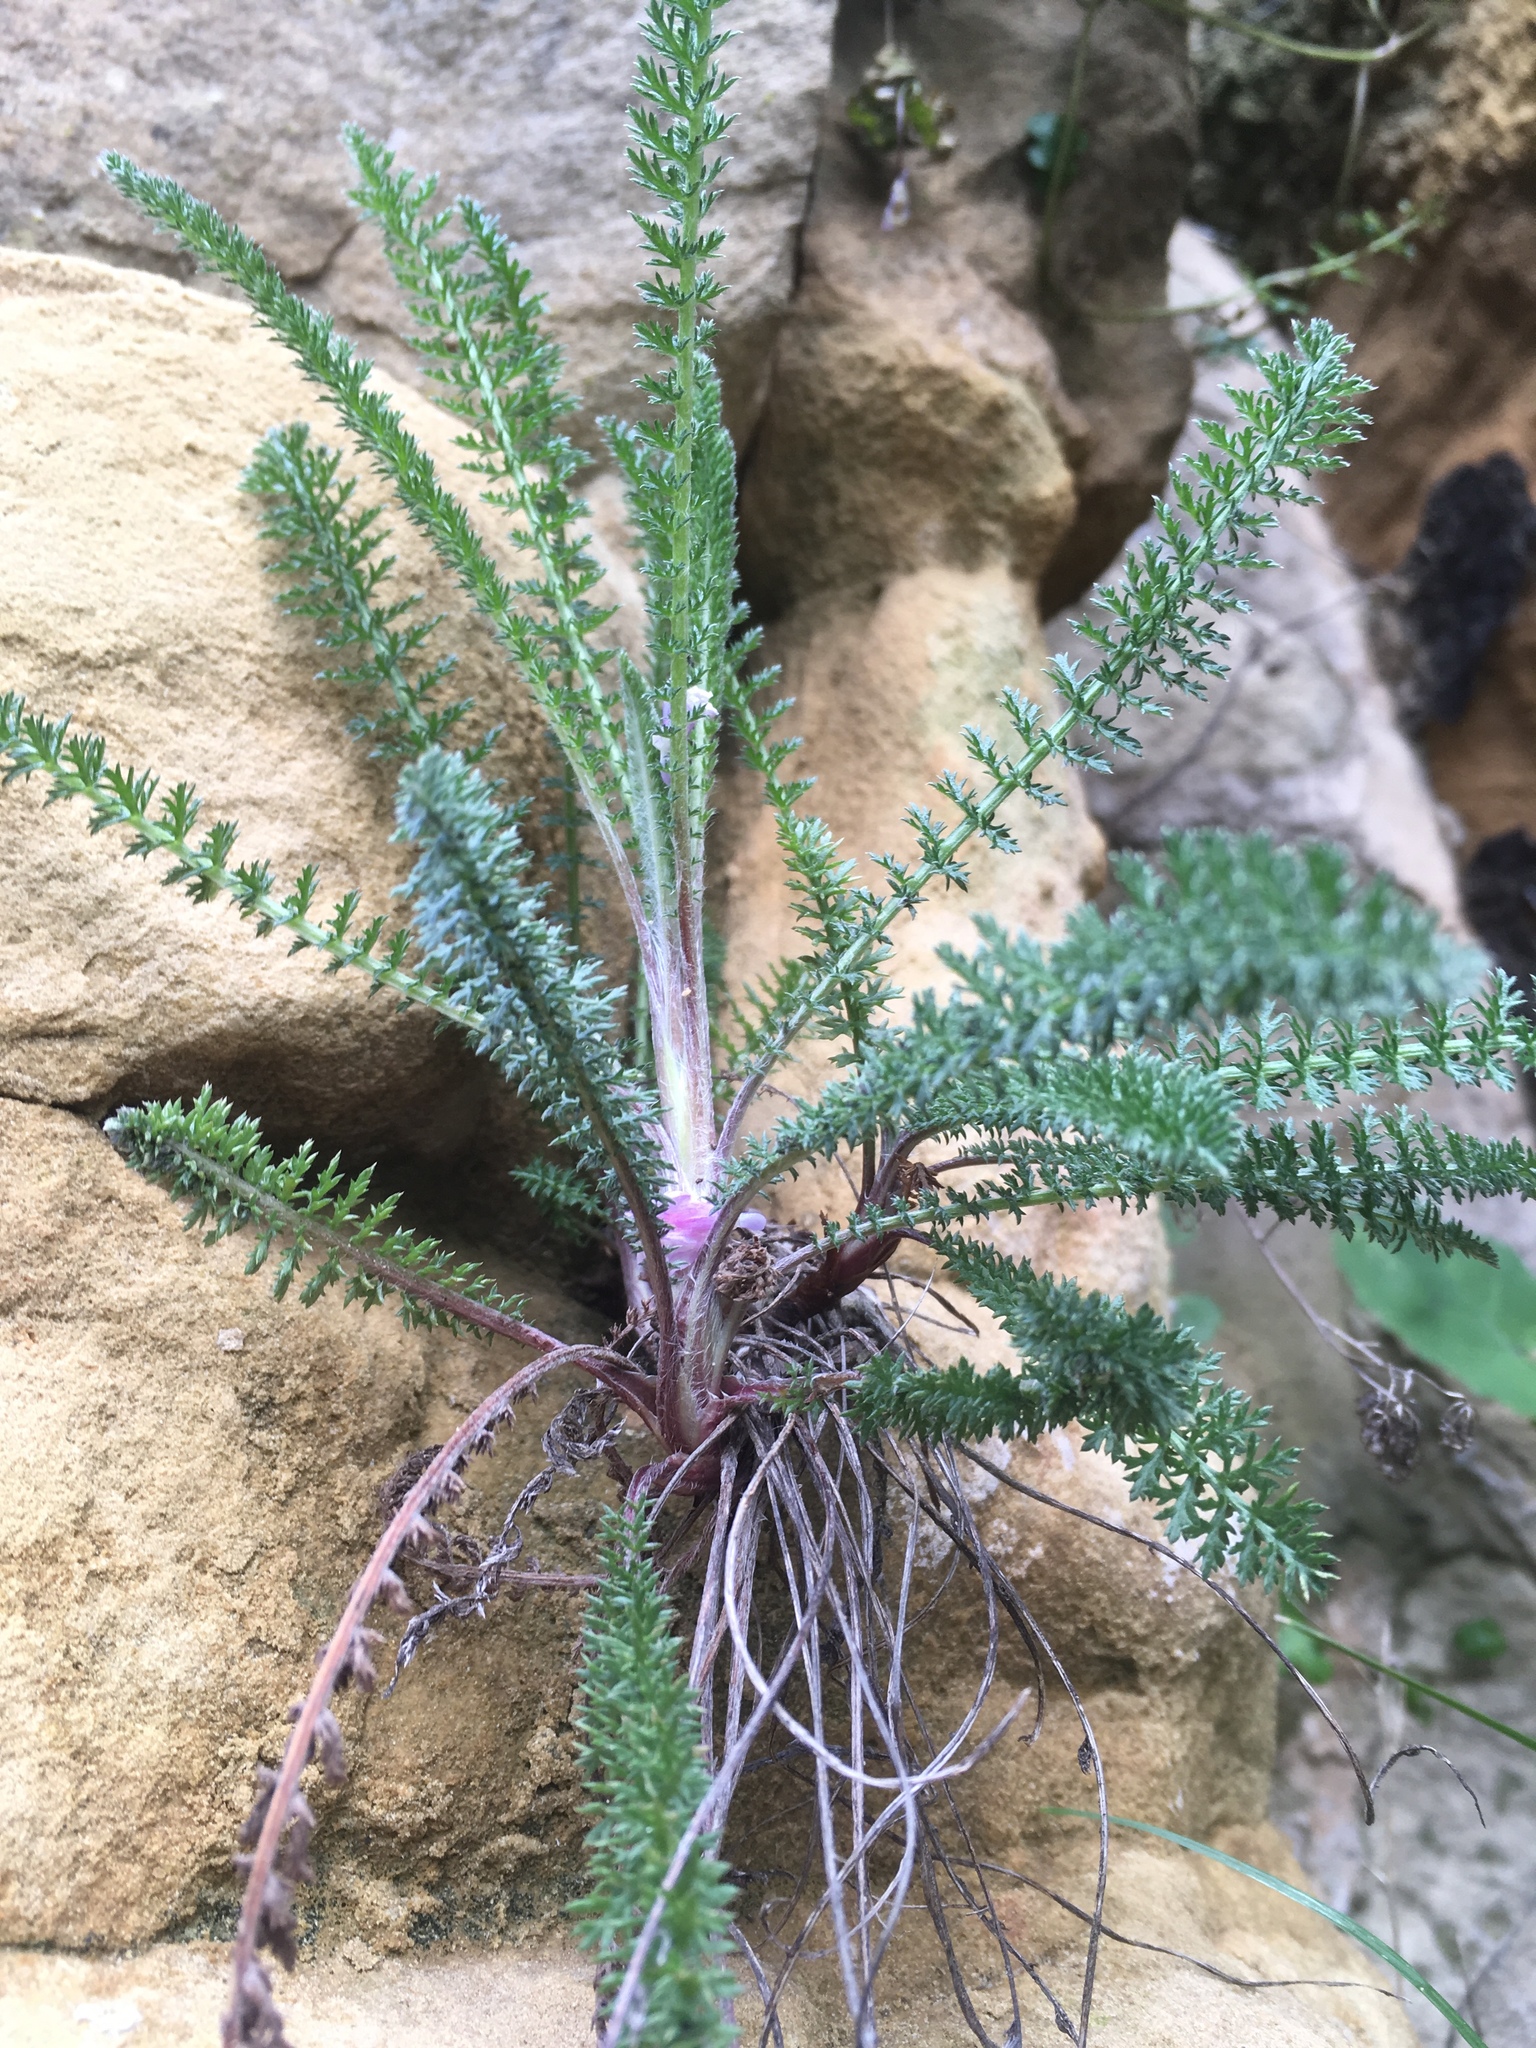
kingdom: Plantae
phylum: Tracheophyta
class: Magnoliopsida
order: Asterales
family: Asteraceae
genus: Achillea
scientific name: Achillea millefolium
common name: Yarrow
